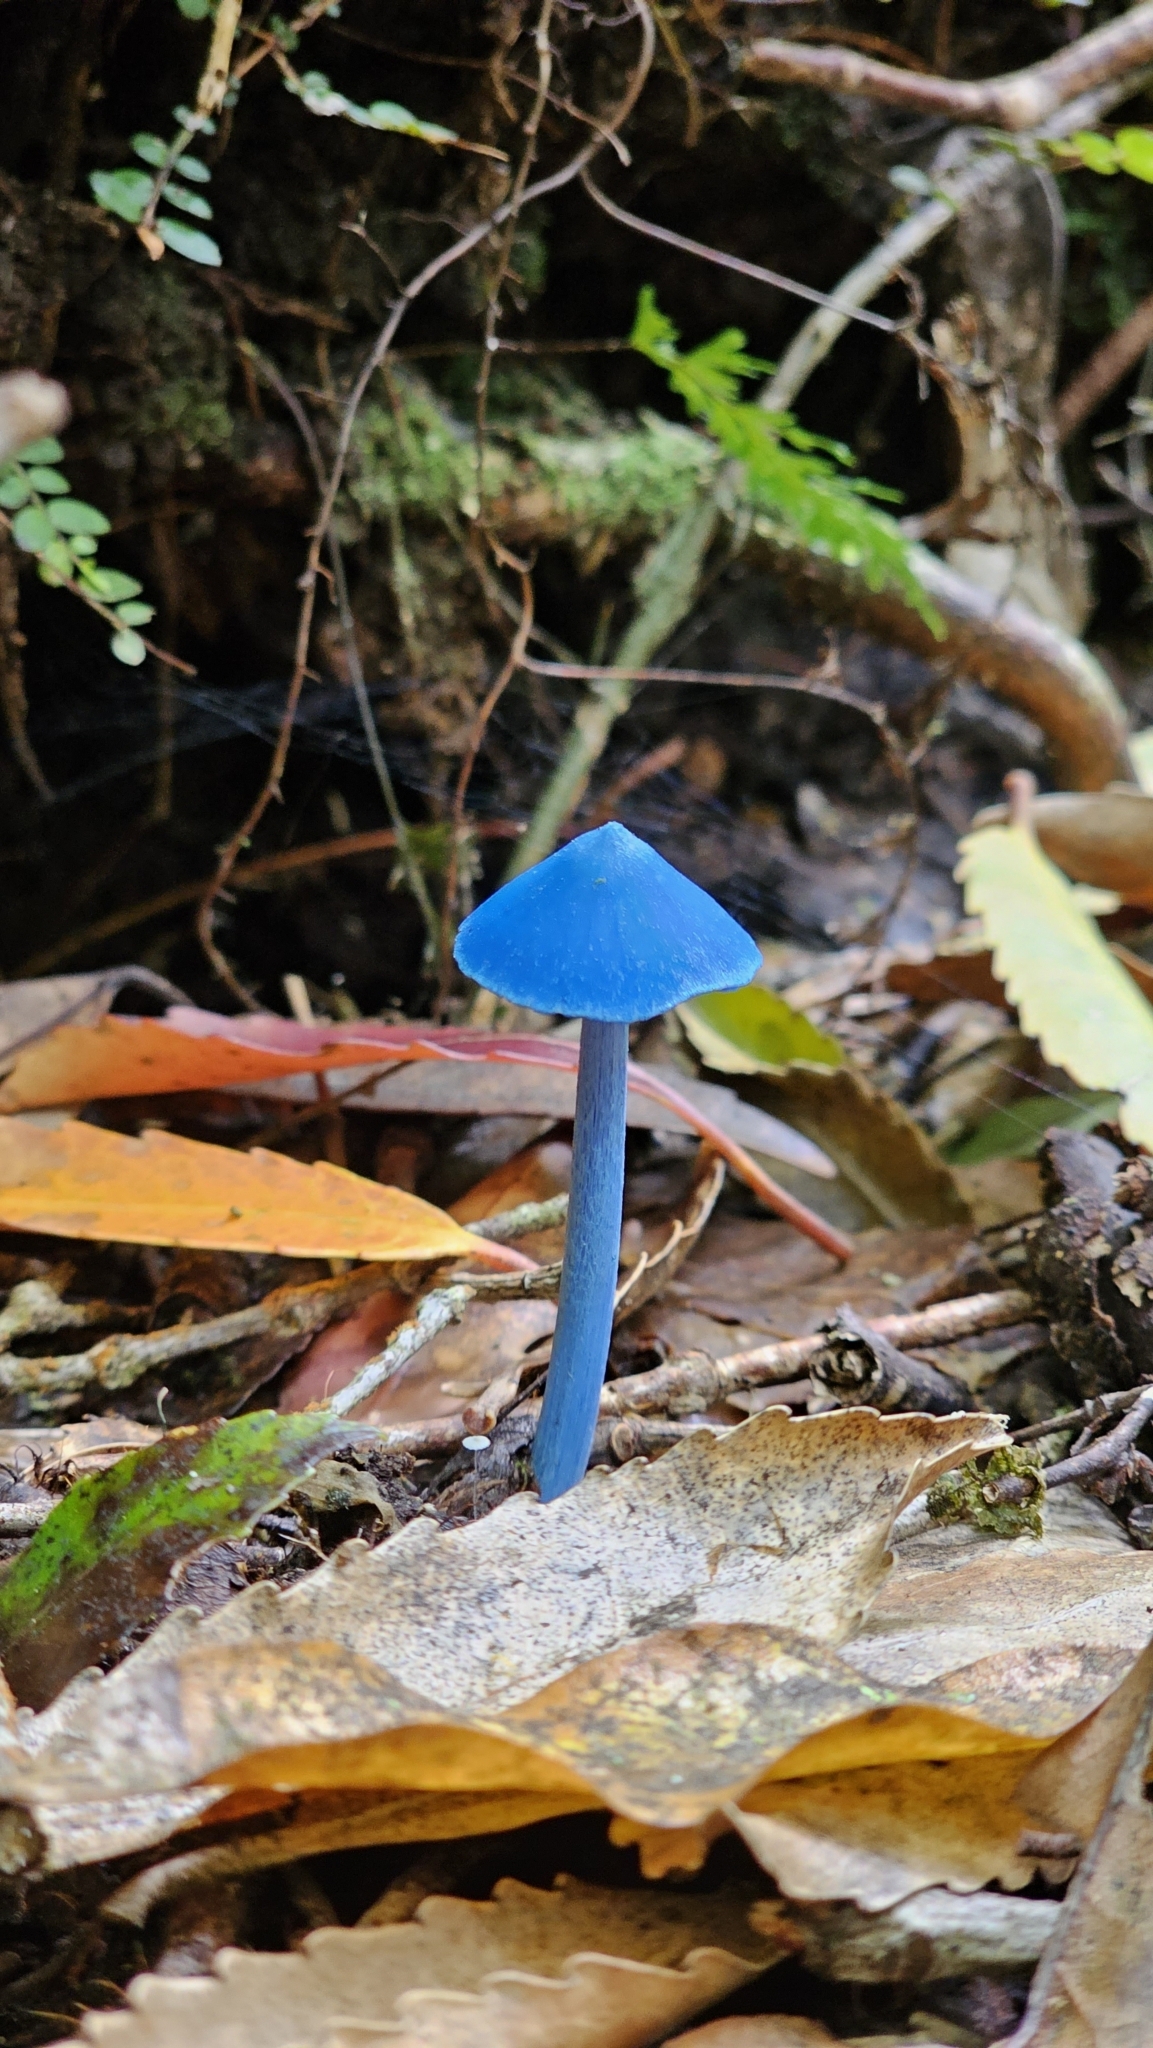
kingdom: Fungi
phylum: Basidiomycota
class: Agaricomycetes
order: Agaricales
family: Entolomataceae
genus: Entoloma
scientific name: Entoloma hochstetteri
